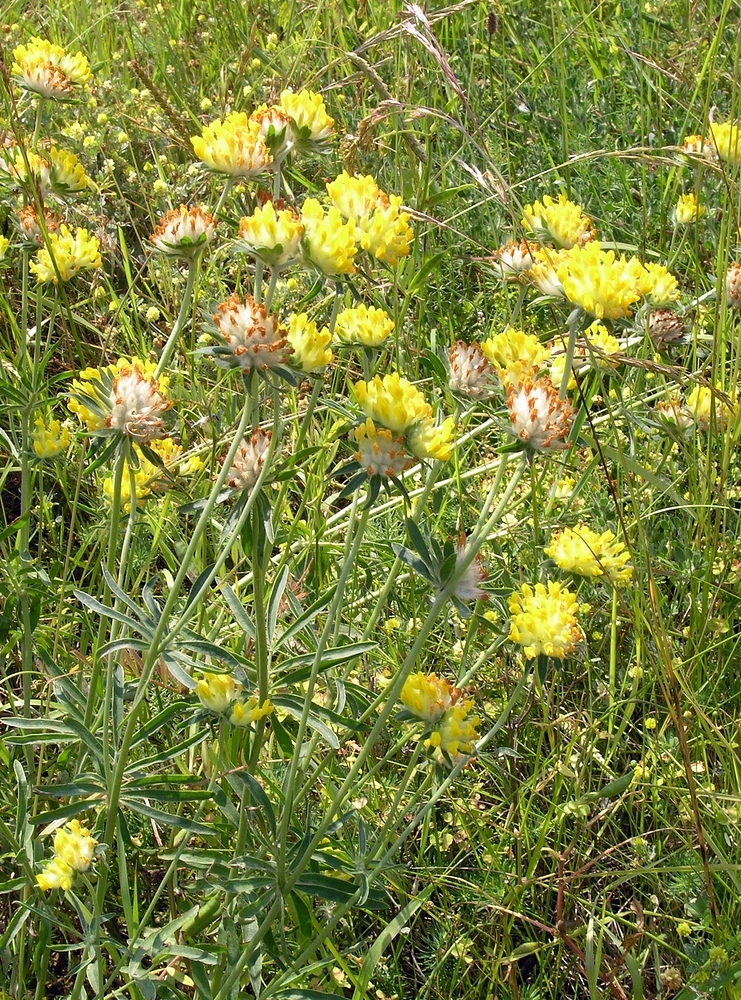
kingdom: Plantae
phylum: Tracheophyta
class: Magnoliopsida
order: Fabales
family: Fabaceae
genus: Anthyllis
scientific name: Anthyllis vulneraria
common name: Kidney vetch
